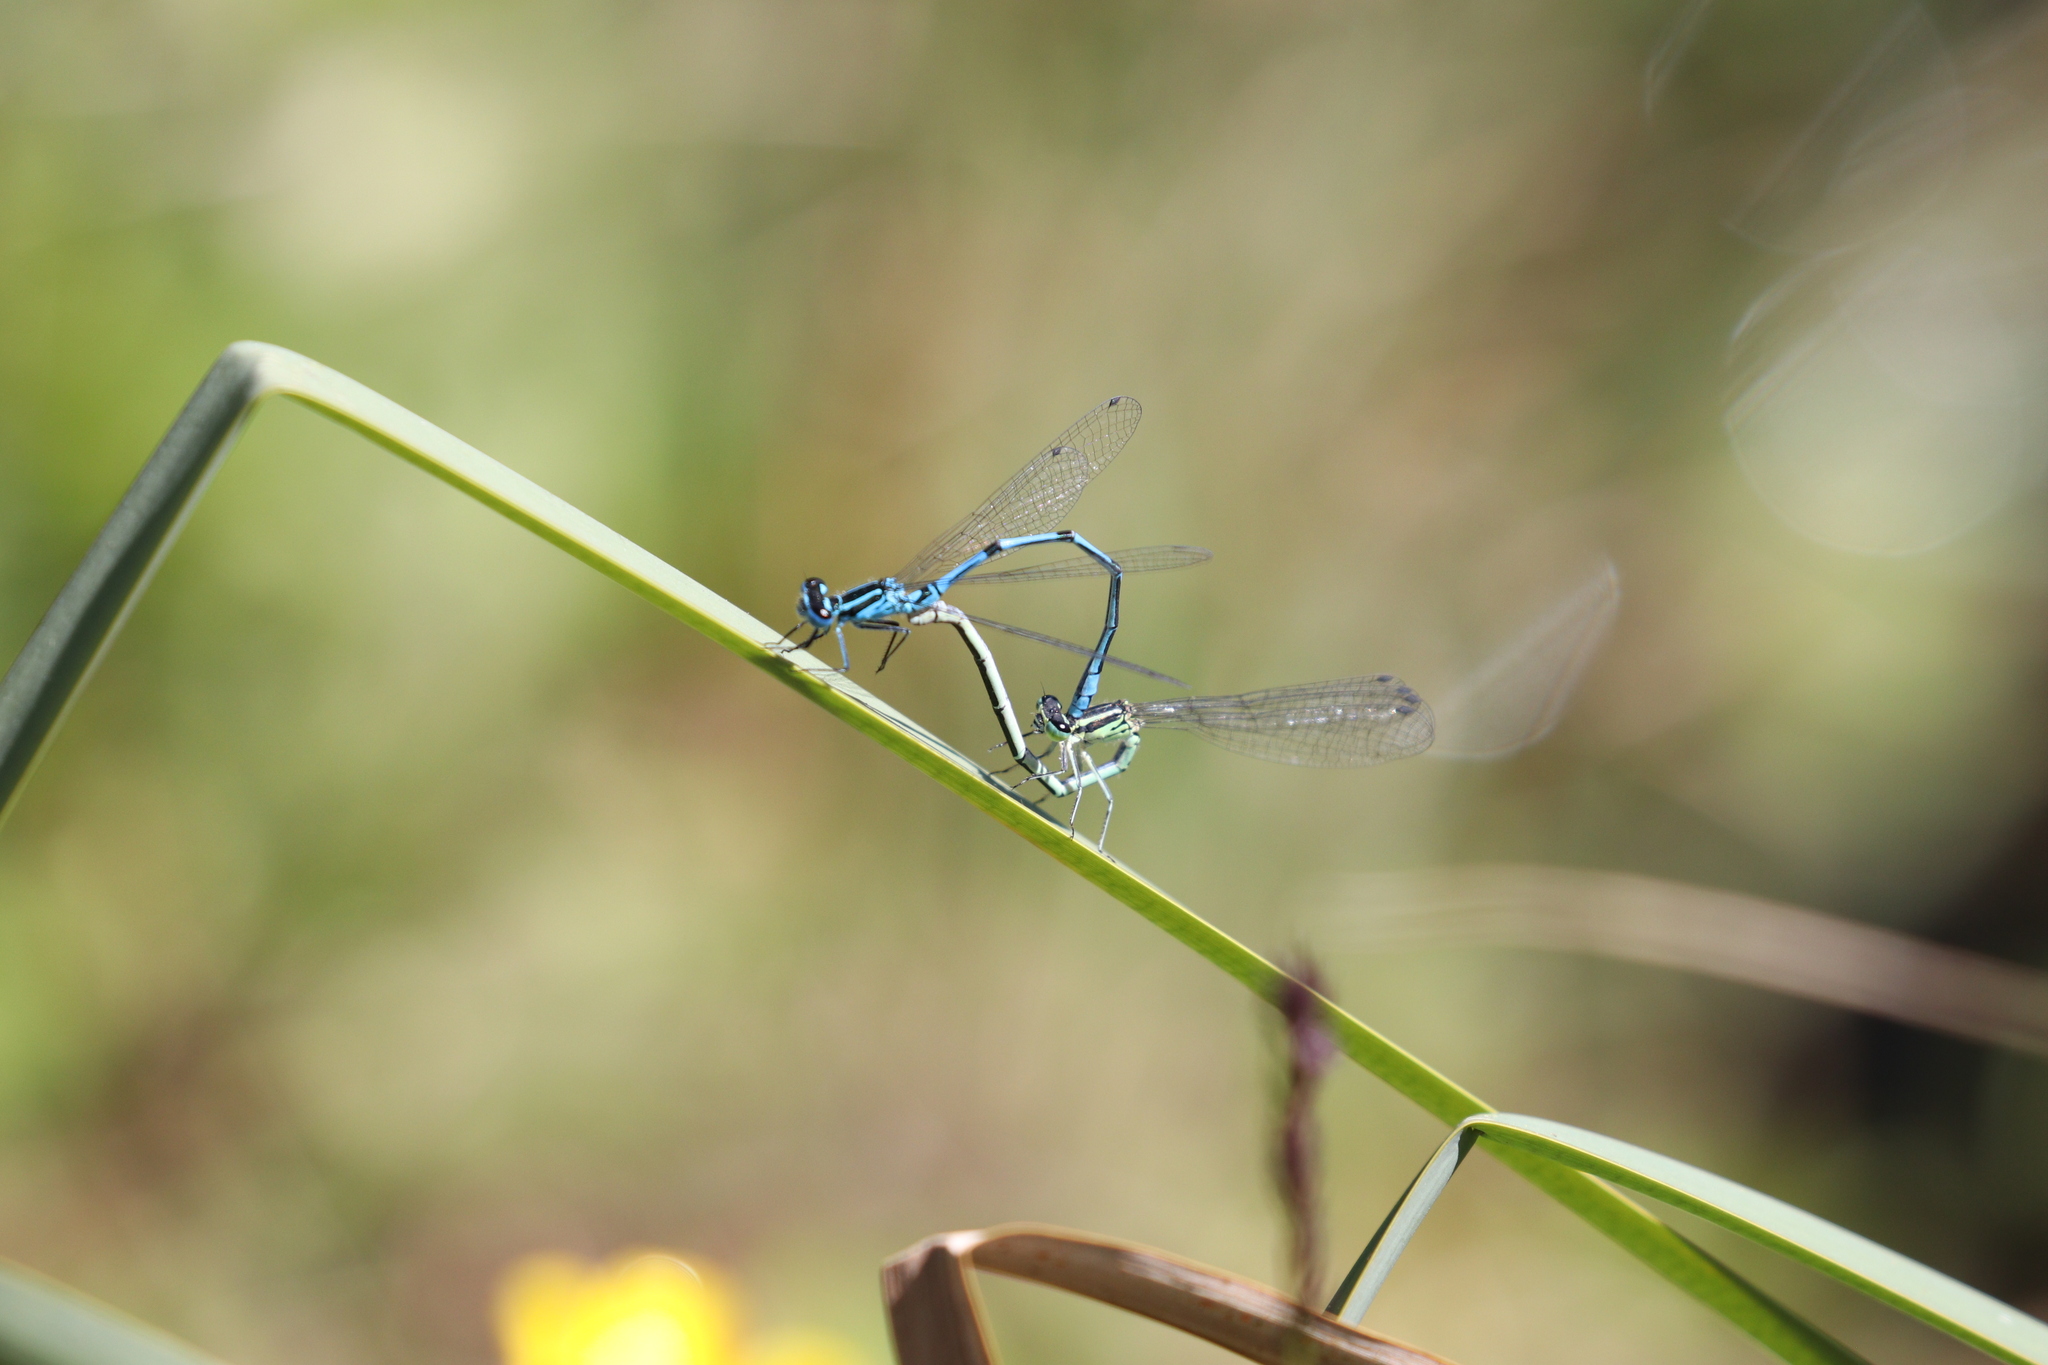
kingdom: Animalia
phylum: Arthropoda
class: Insecta
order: Odonata
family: Coenagrionidae
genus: Coenagrion
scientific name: Coenagrion puella
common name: Azure damselfly
